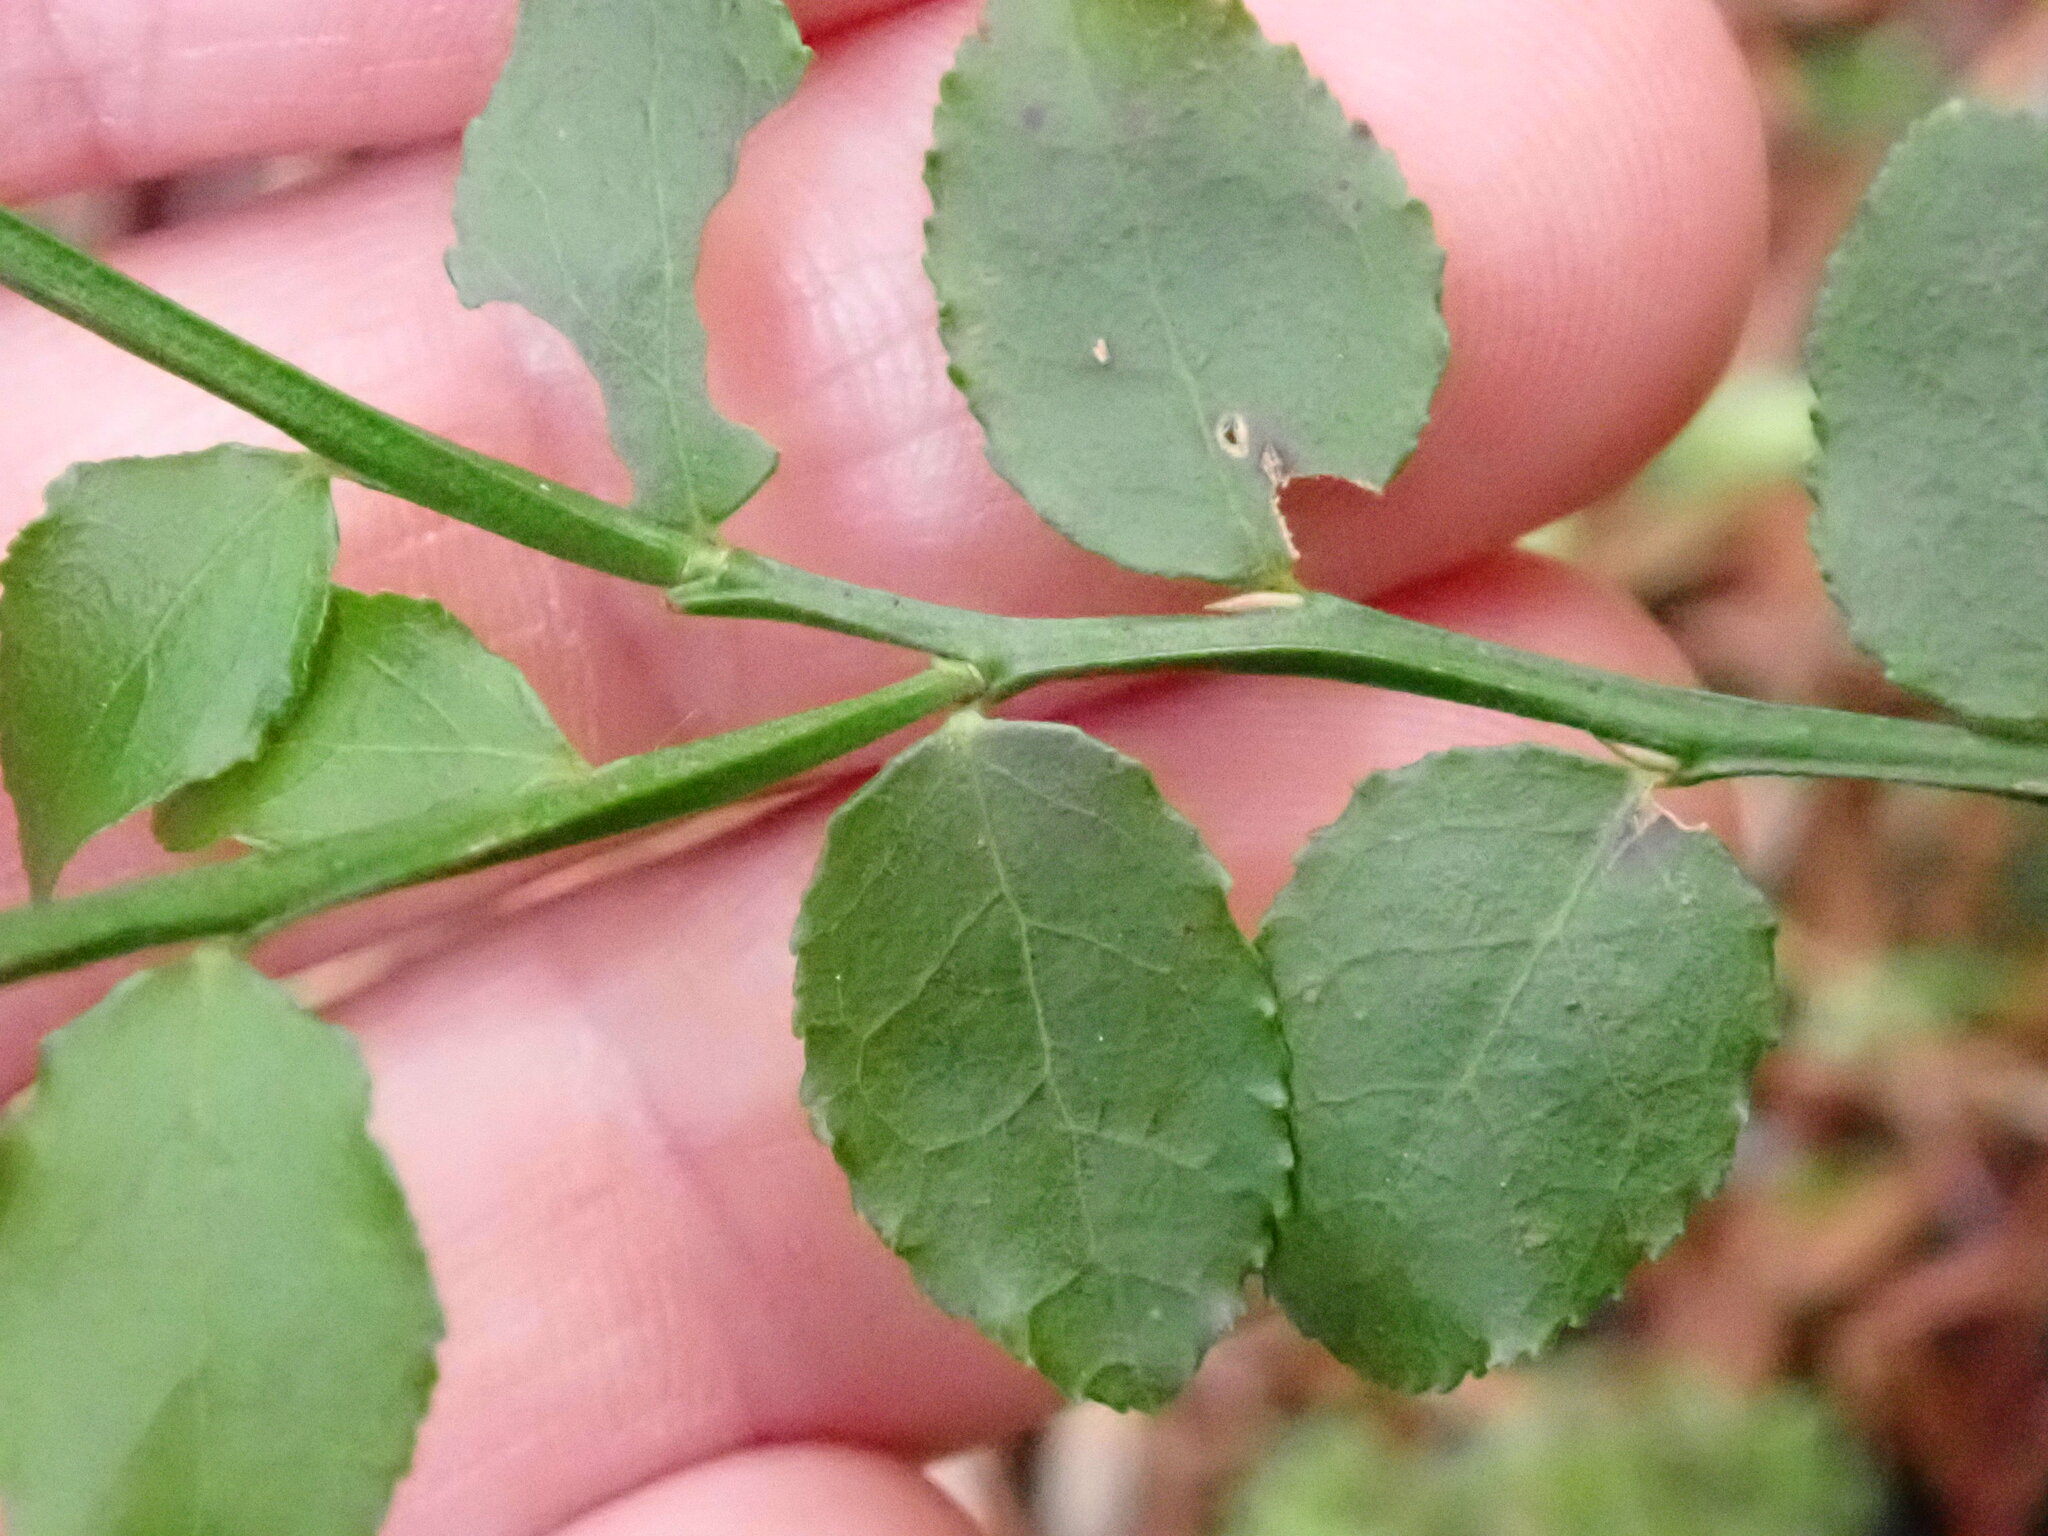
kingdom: Plantae
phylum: Tracheophyta
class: Magnoliopsida
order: Ericales
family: Ericaceae
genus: Vaccinium
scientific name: Vaccinium parvifolium
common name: Red-huckleberry
